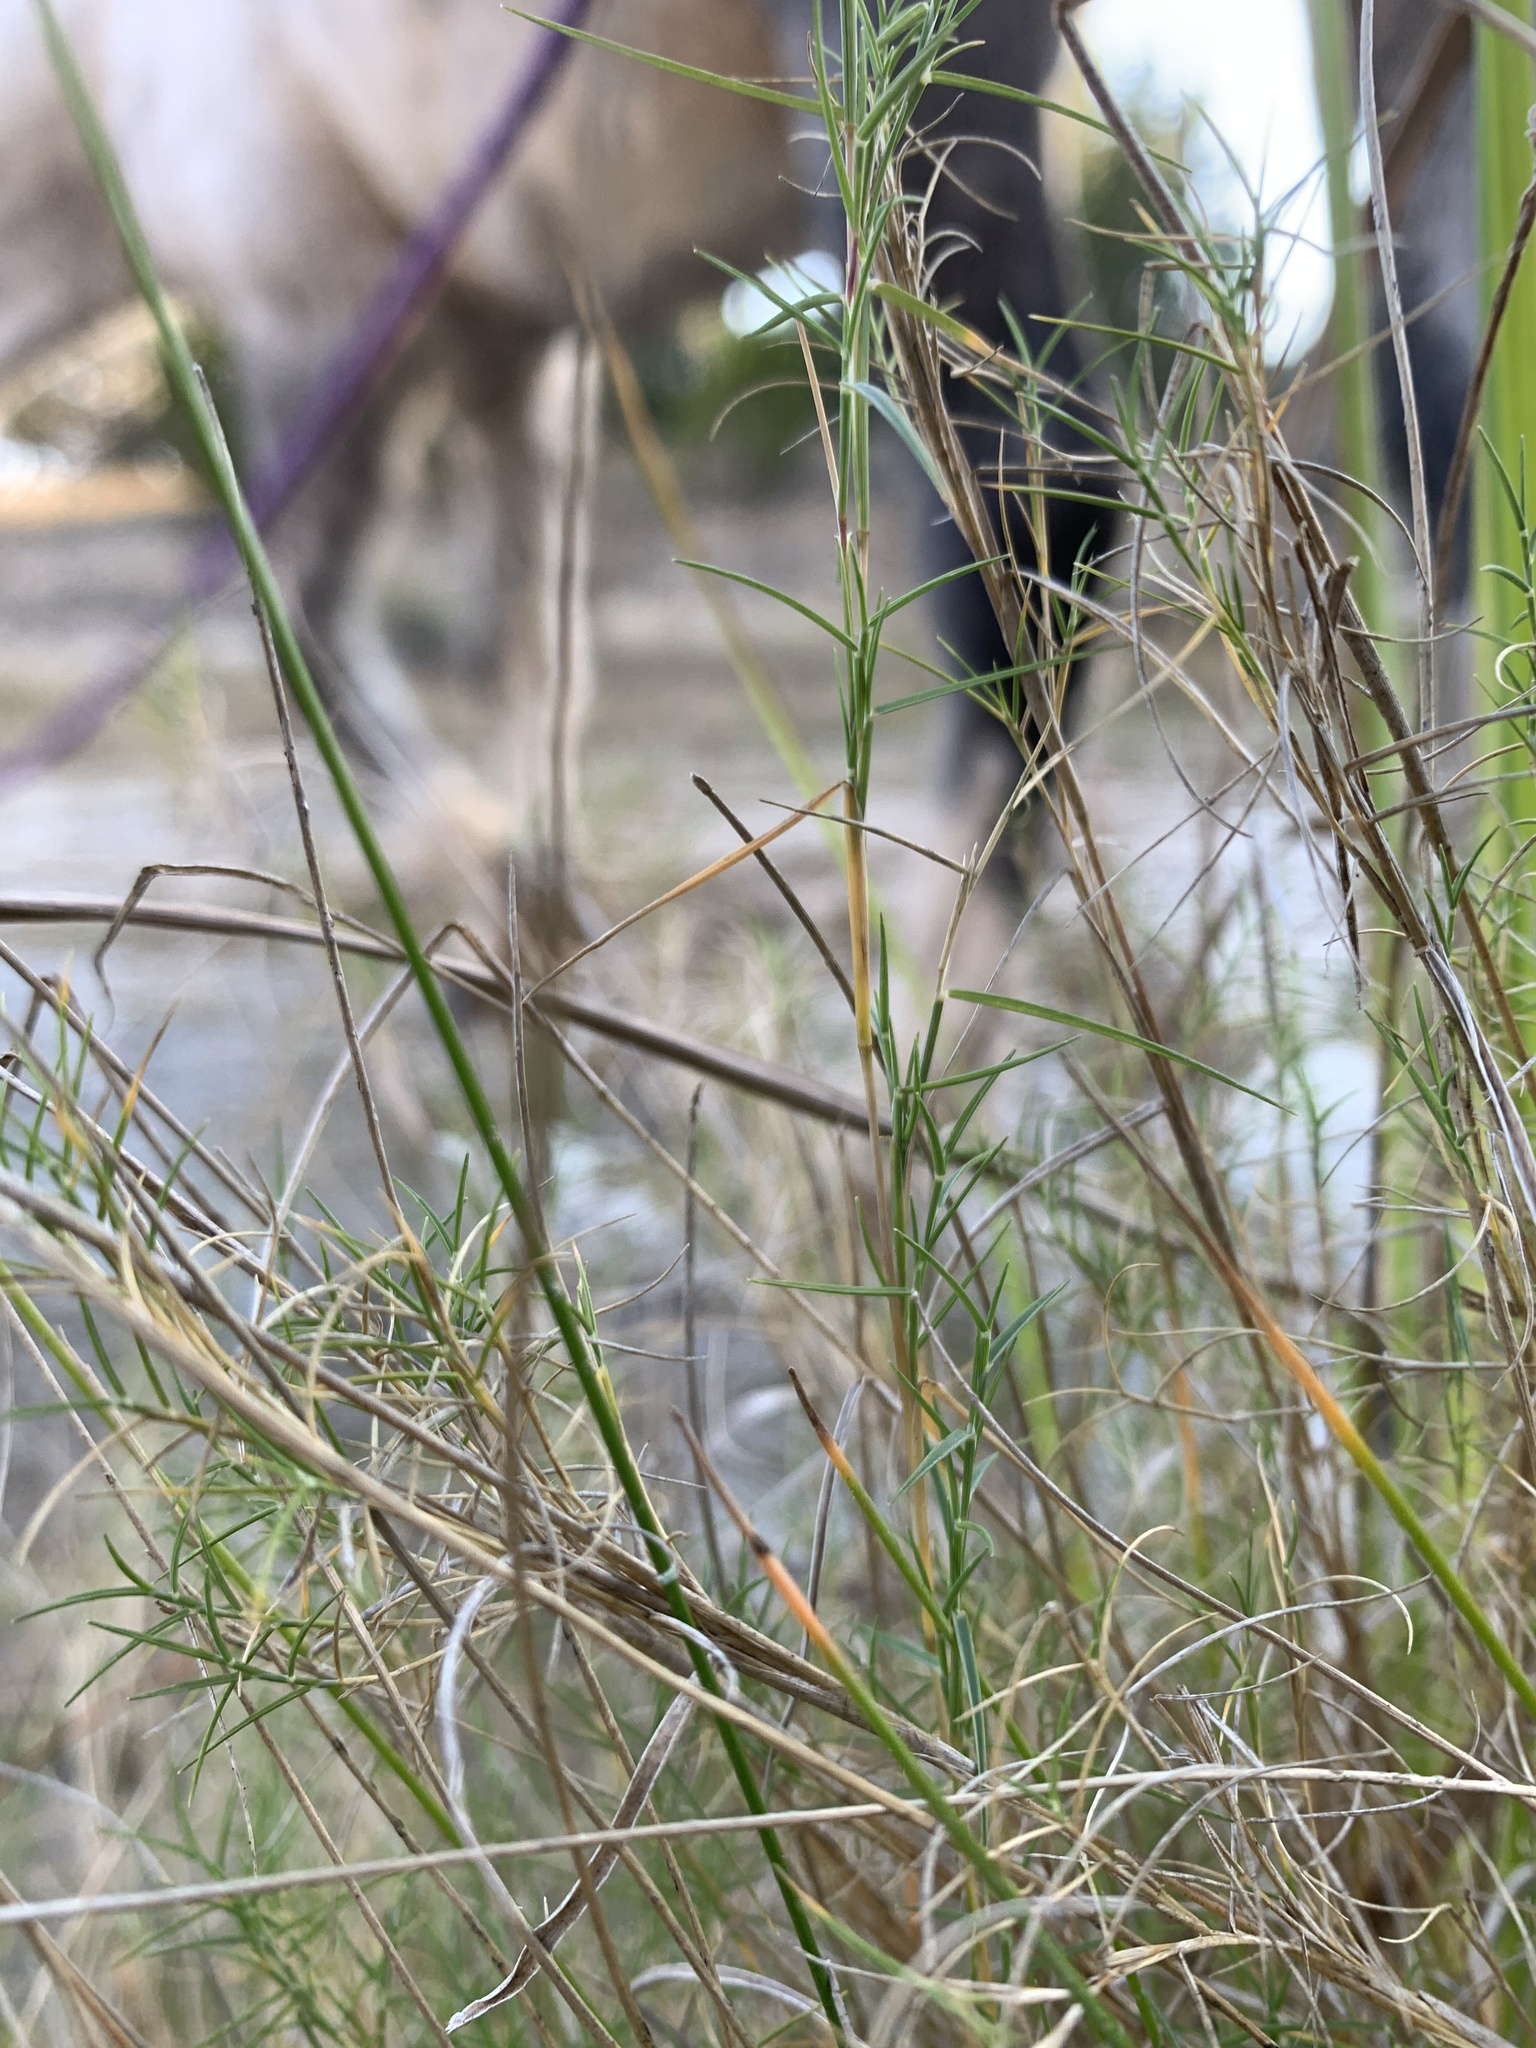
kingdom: Plantae
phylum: Tracheophyta
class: Liliopsida
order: Poales
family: Poaceae
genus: Muhlenbergia
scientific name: Muhlenbergia utilis
